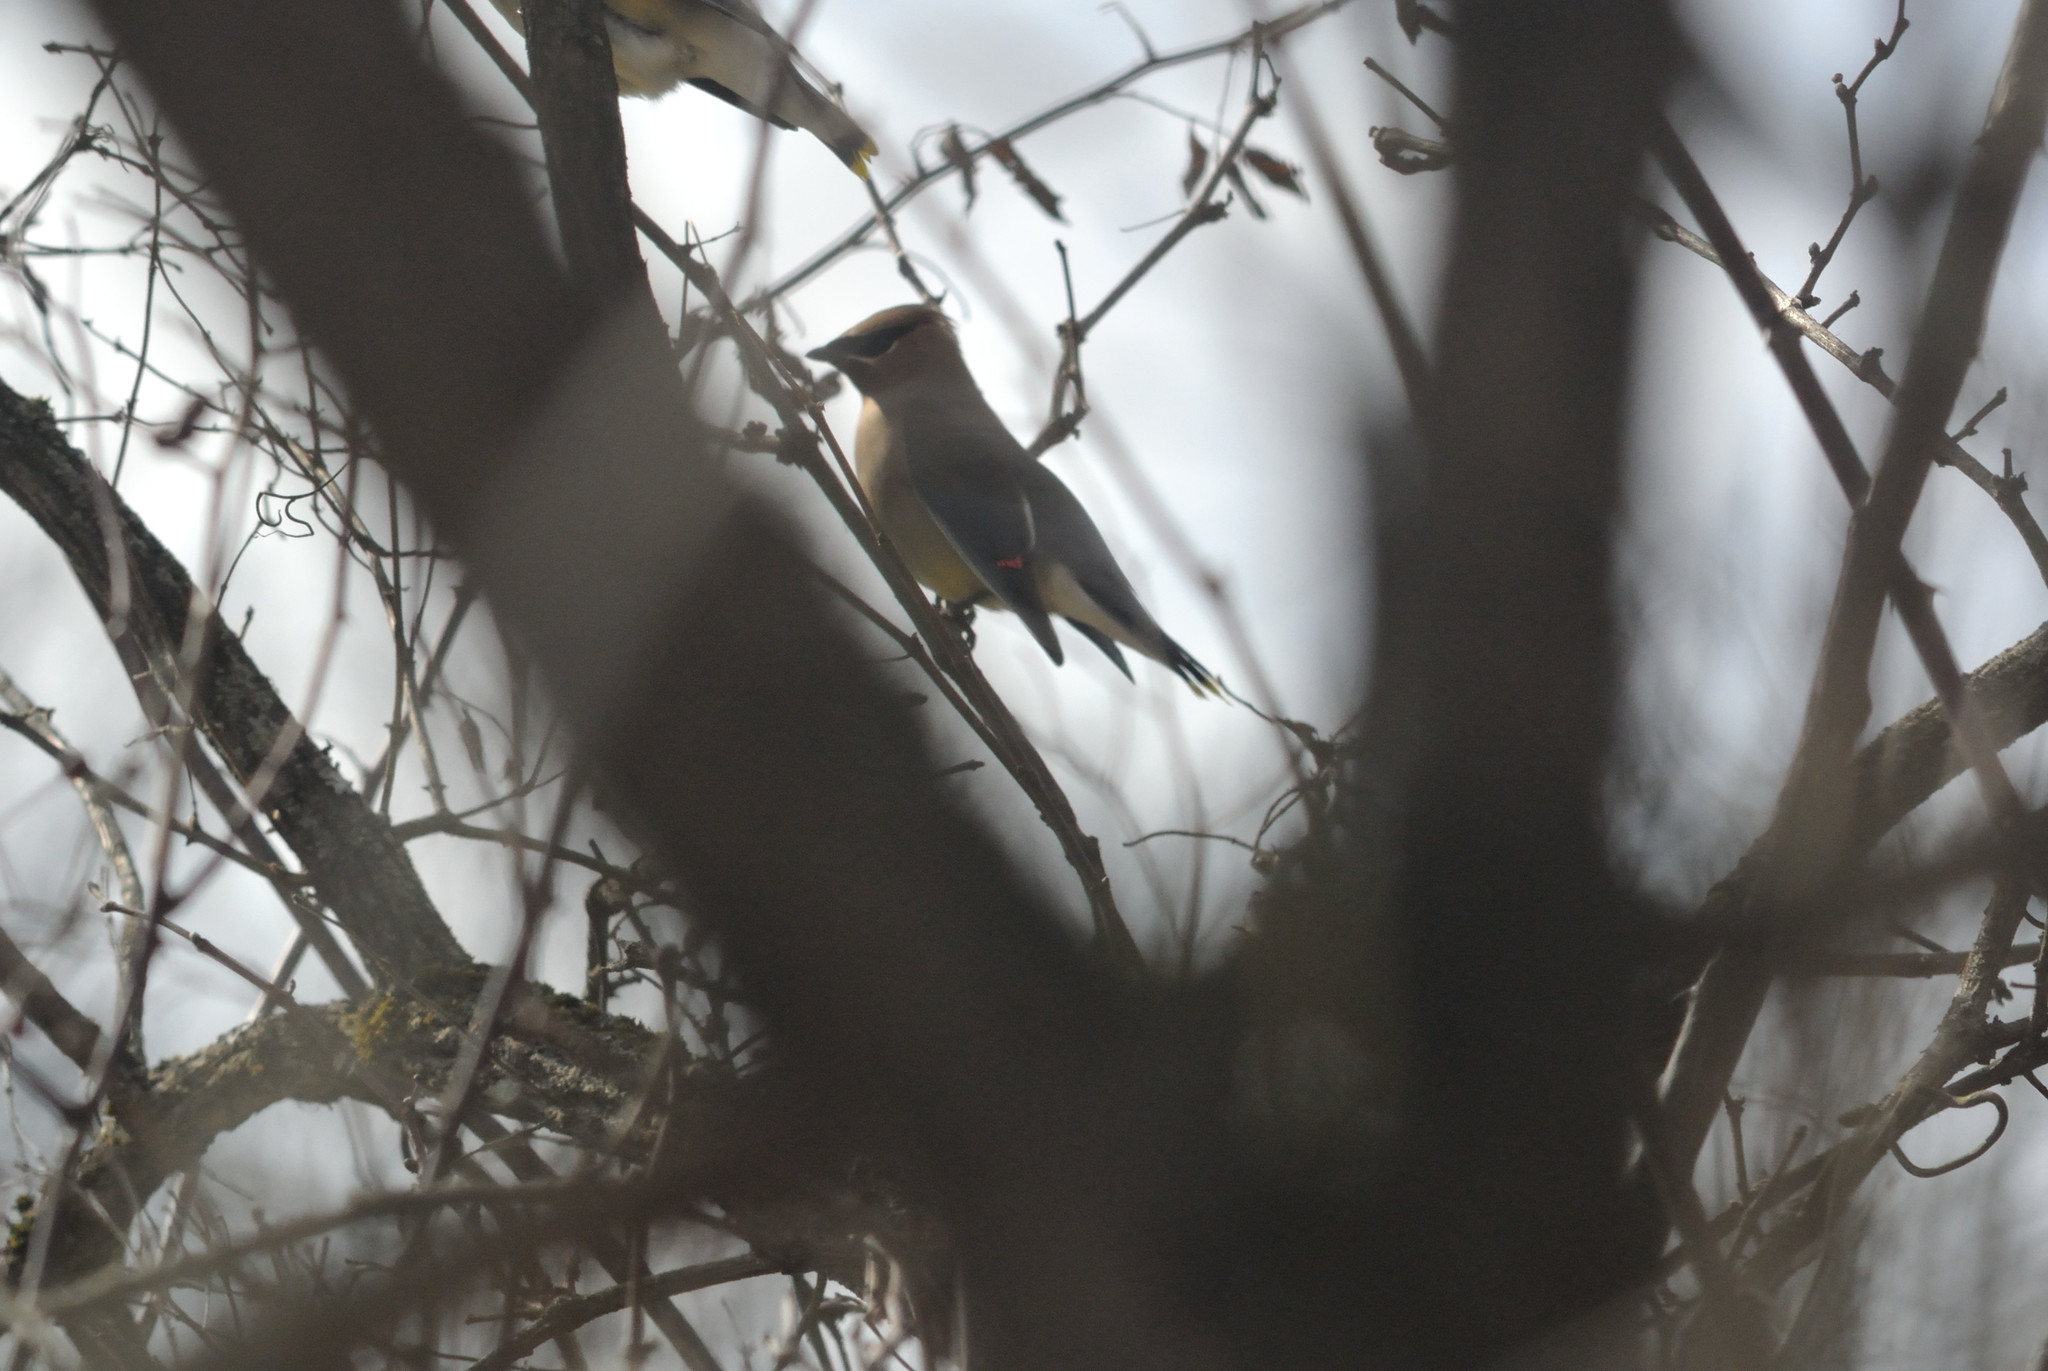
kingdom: Animalia
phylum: Chordata
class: Aves
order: Passeriformes
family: Bombycillidae
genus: Bombycilla
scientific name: Bombycilla cedrorum
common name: Cedar waxwing
